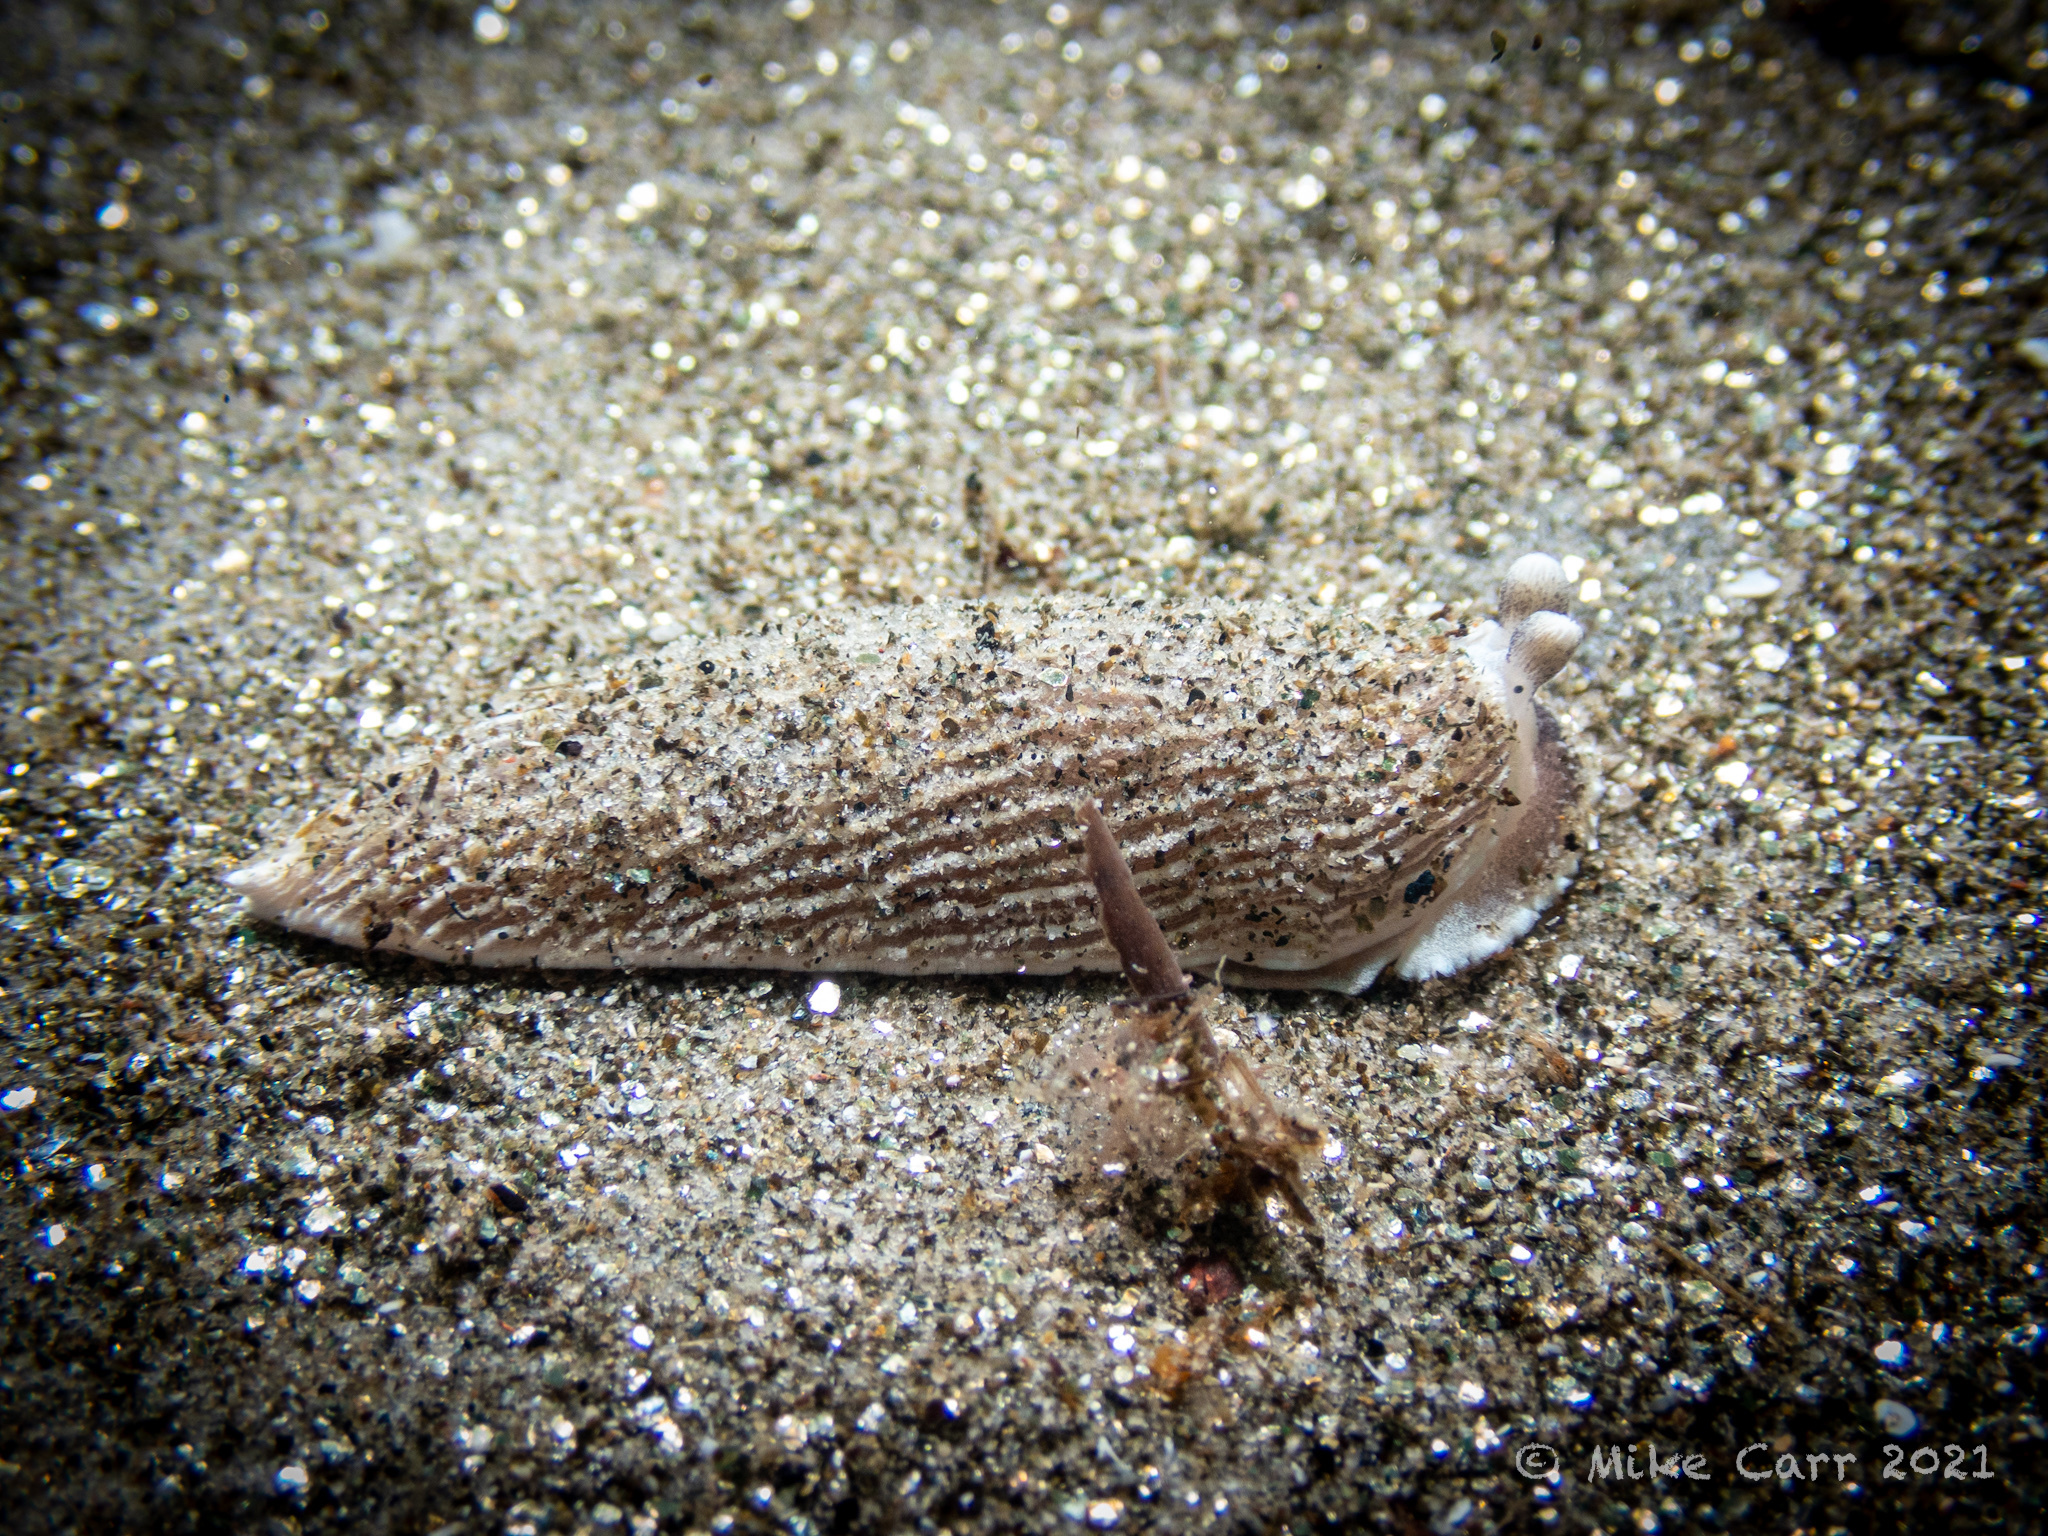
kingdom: Animalia
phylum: Mollusca
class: Gastropoda
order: Nudibranchia
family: Arminidae
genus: Armina
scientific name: Armina californica
